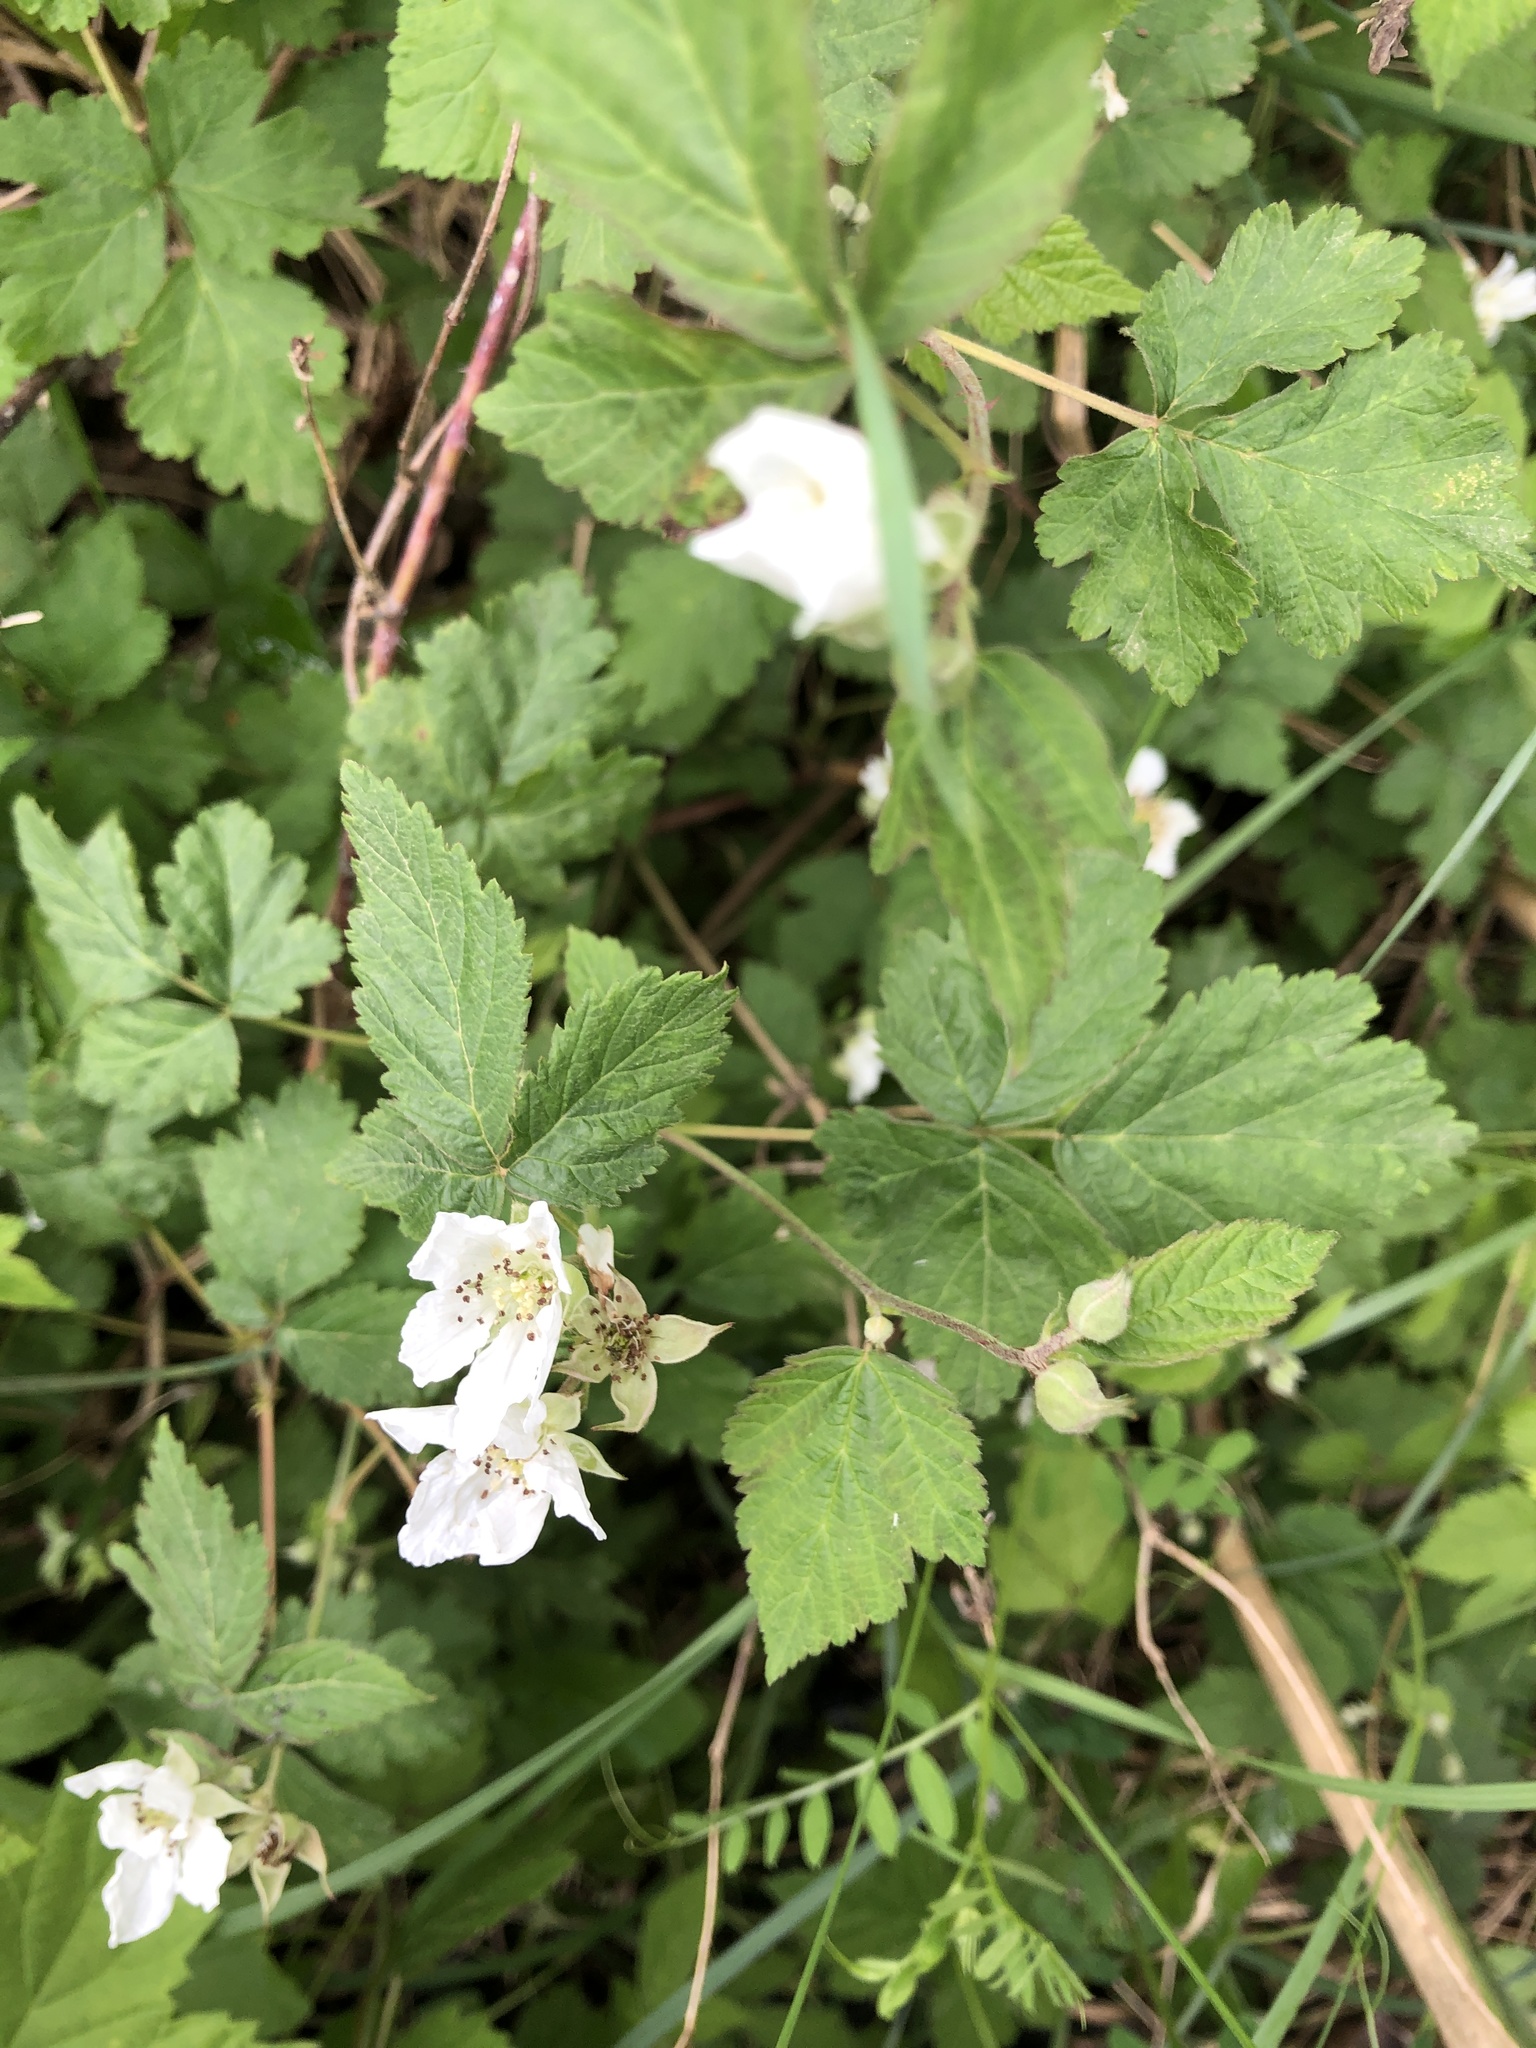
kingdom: Plantae
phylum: Tracheophyta
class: Magnoliopsida
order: Rosales
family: Rosaceae
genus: Rubus
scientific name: Rubus caesius
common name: Dewberry
